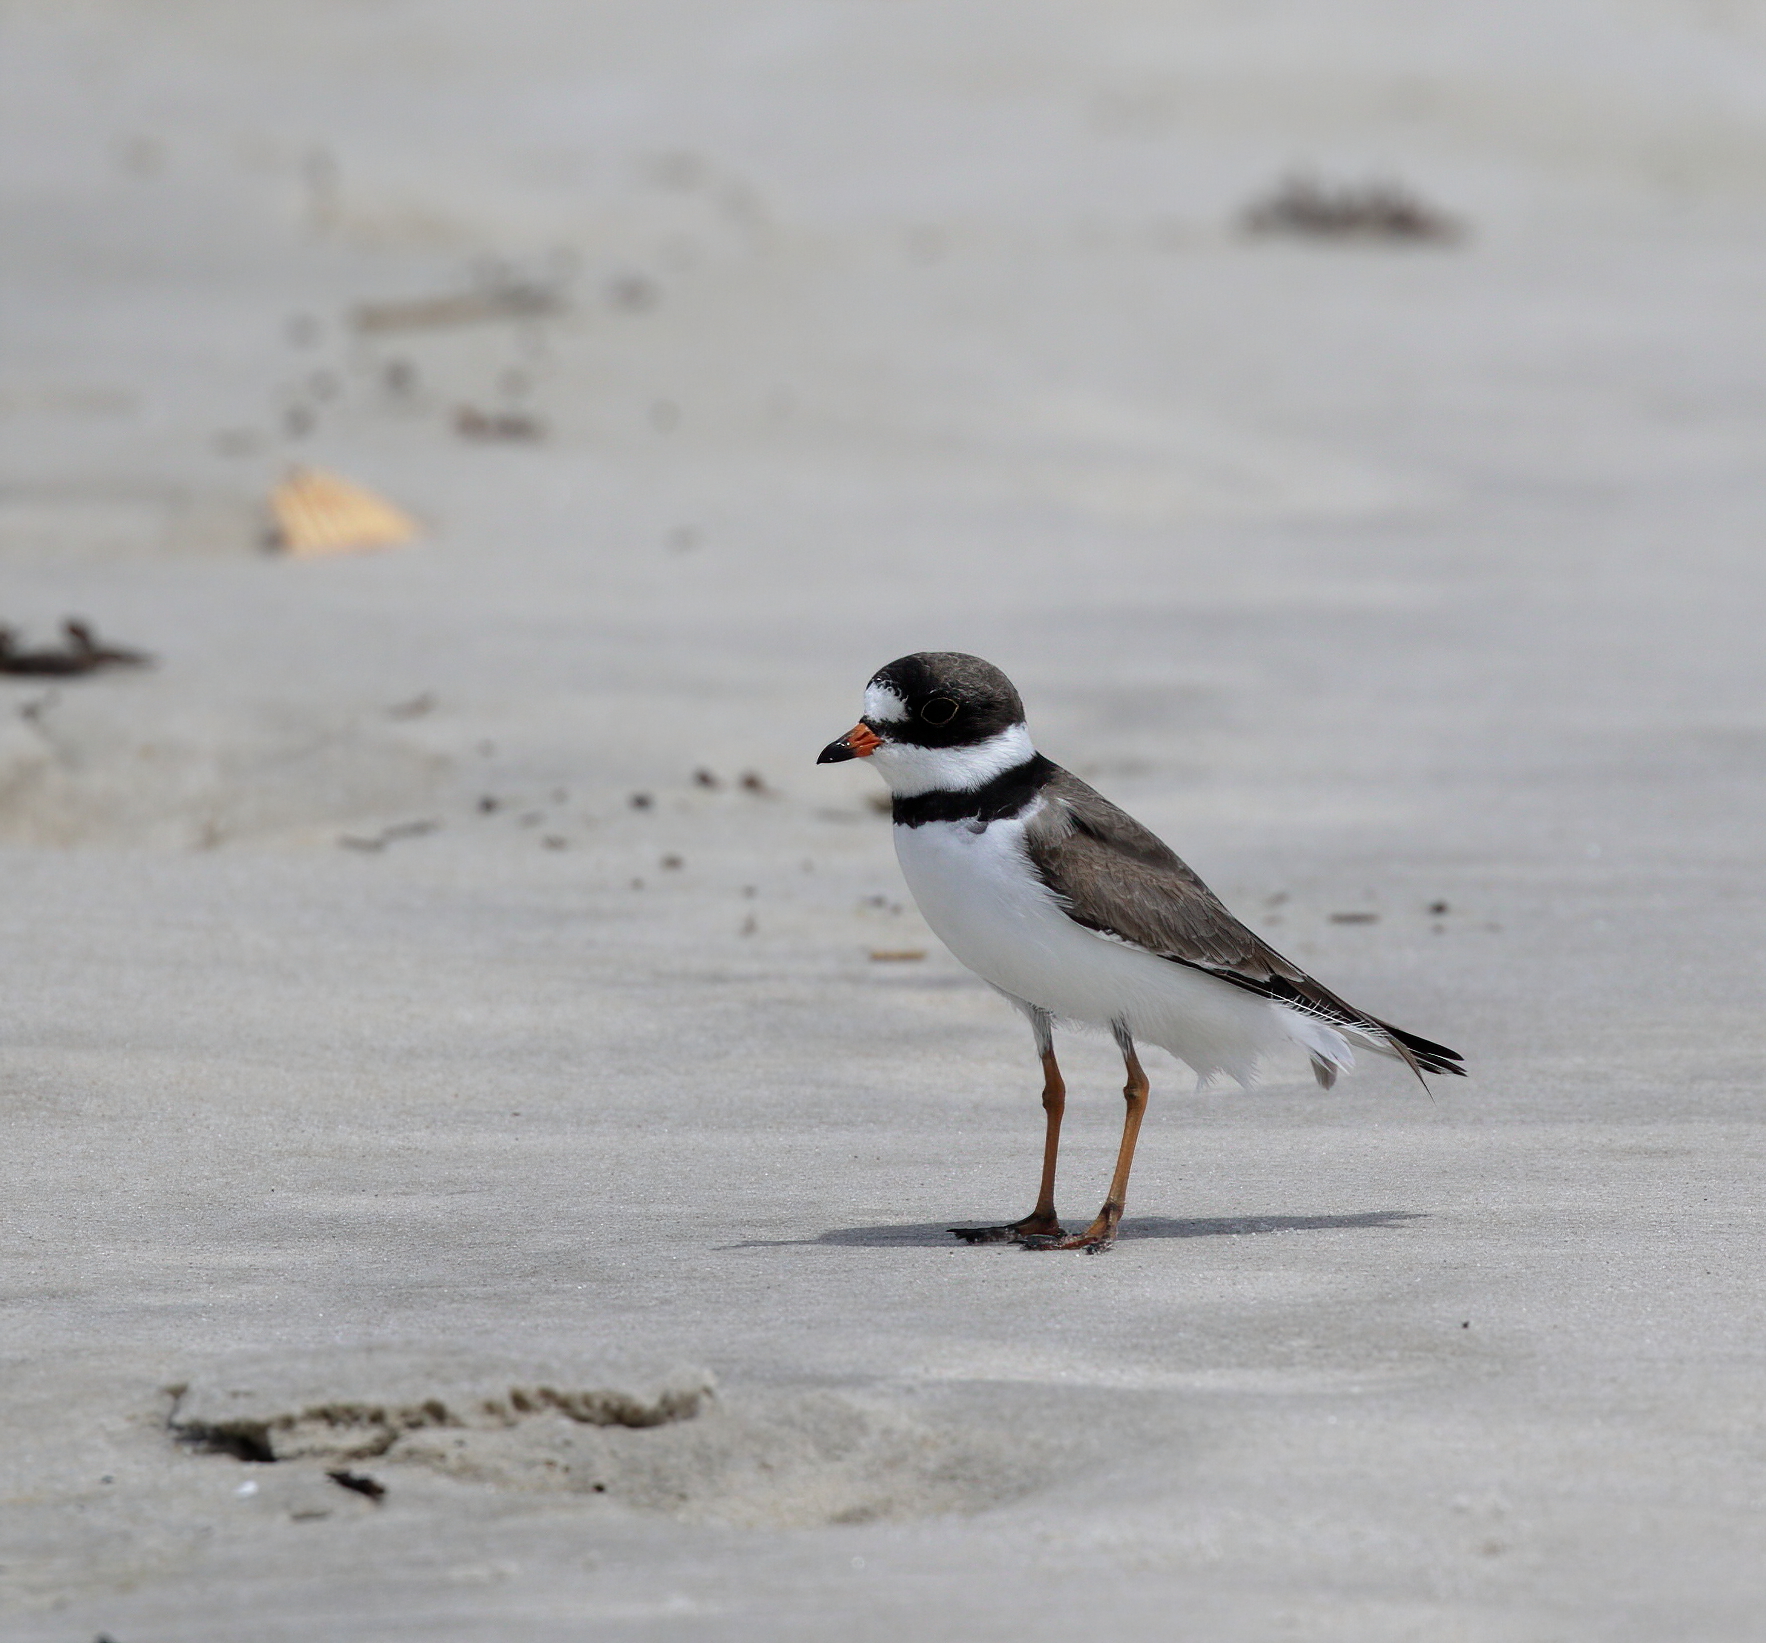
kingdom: Animalia
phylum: Chordata
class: Aves
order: Charadriiformes
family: Charadriidae
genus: Charadrius
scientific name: Charadrius semipalmatus
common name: Semipalmated plover
